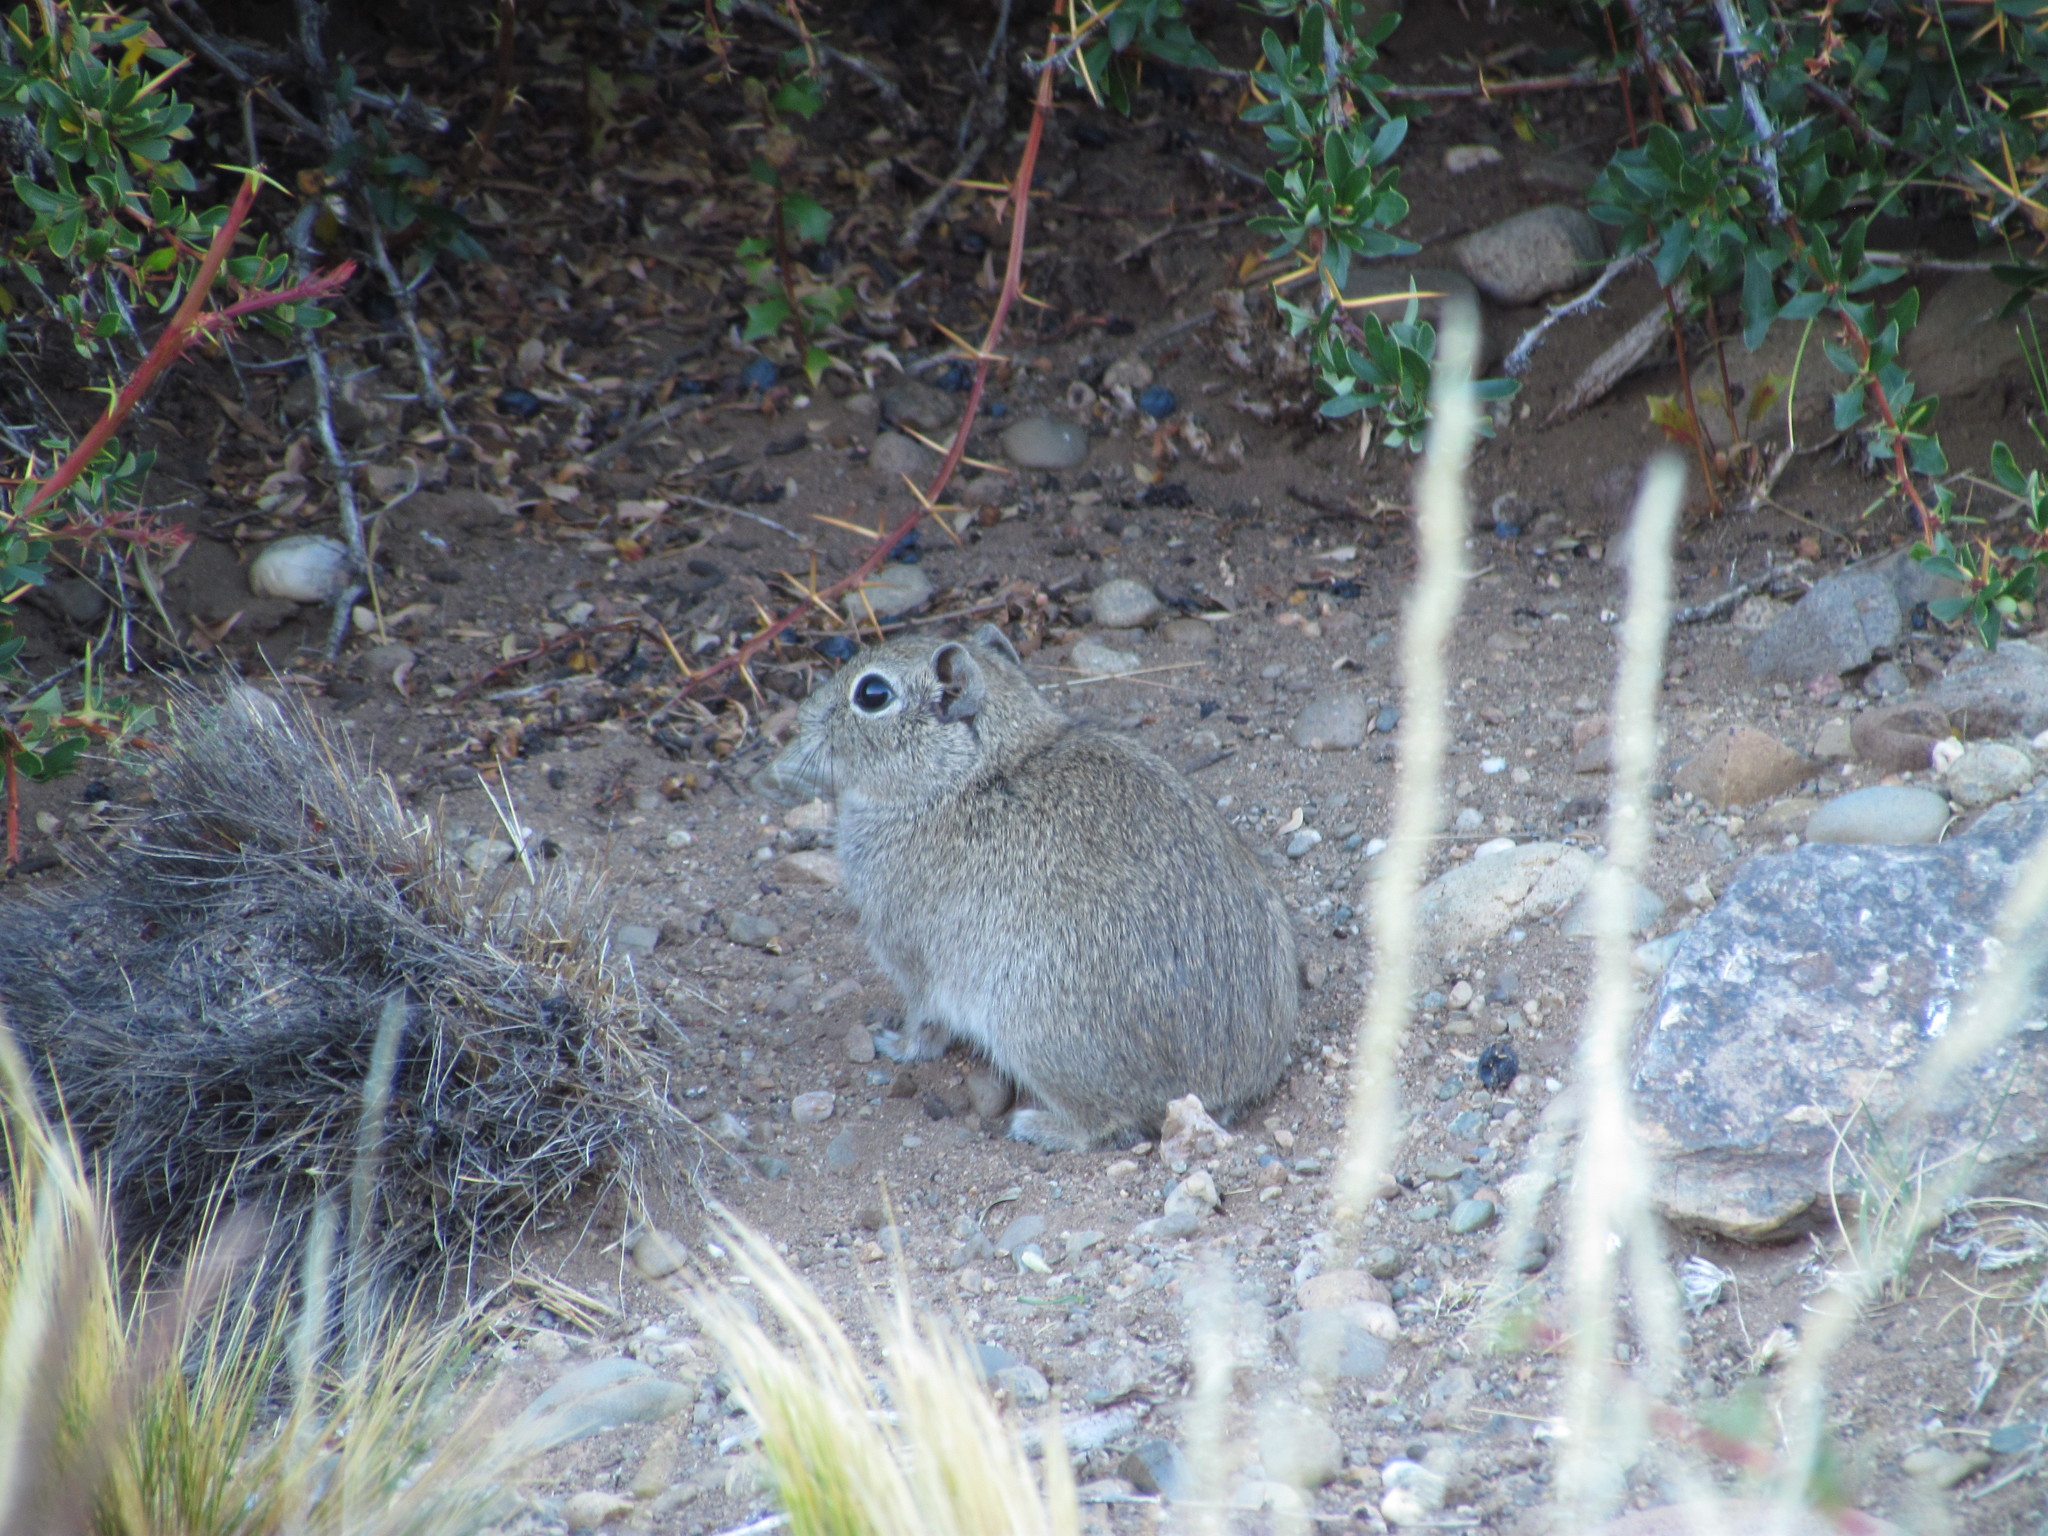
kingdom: Animalia
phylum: Chordata
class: Mammalia
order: Rodentia
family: Caviidae
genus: Microcavia
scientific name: Microcavia australis
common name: Southern mountain cavy
